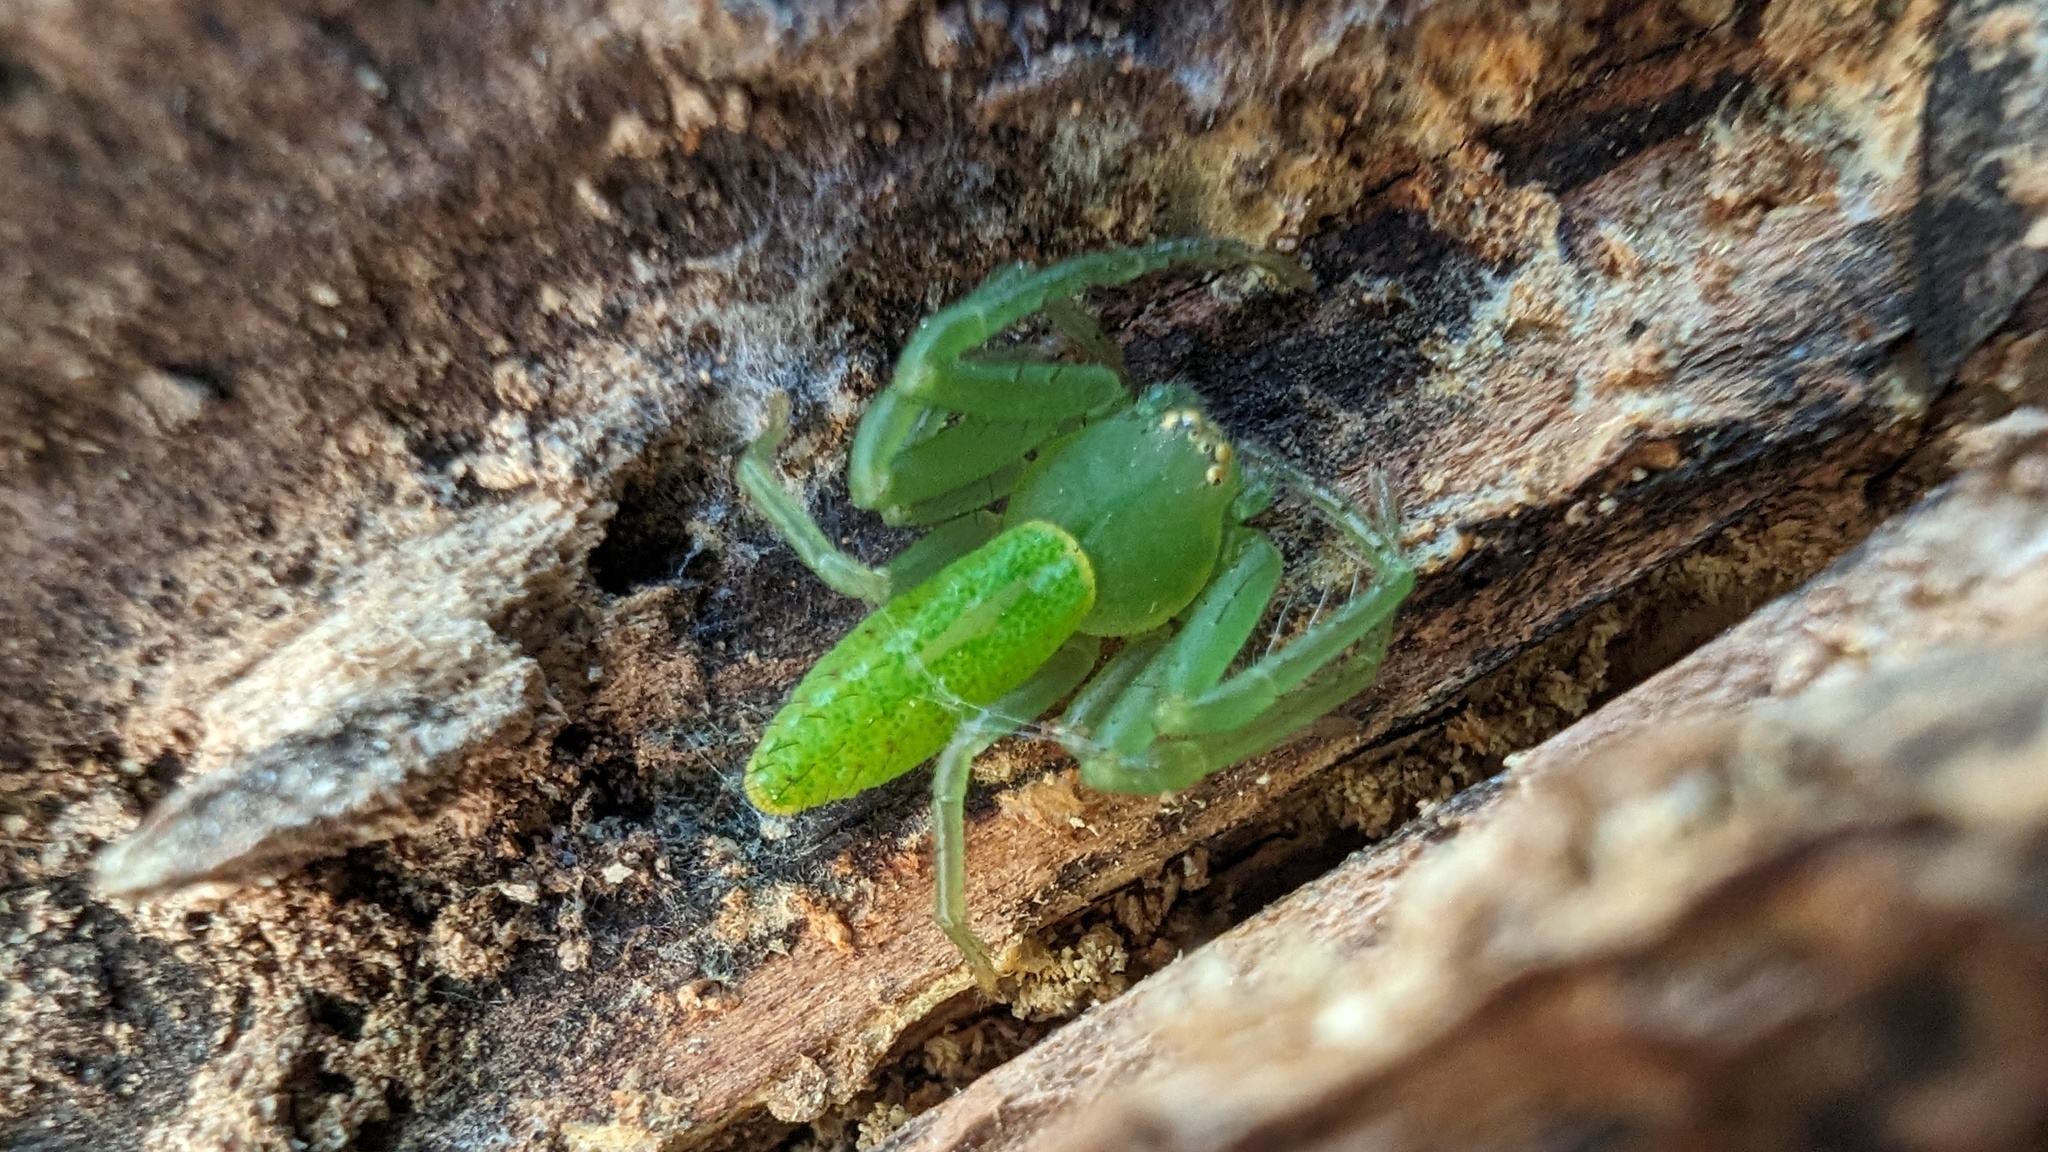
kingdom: Animalia
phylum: Arthropoda
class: Arachnida
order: Araneae
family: Thomisidae
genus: Oxytate
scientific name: Oxytate striatipes
